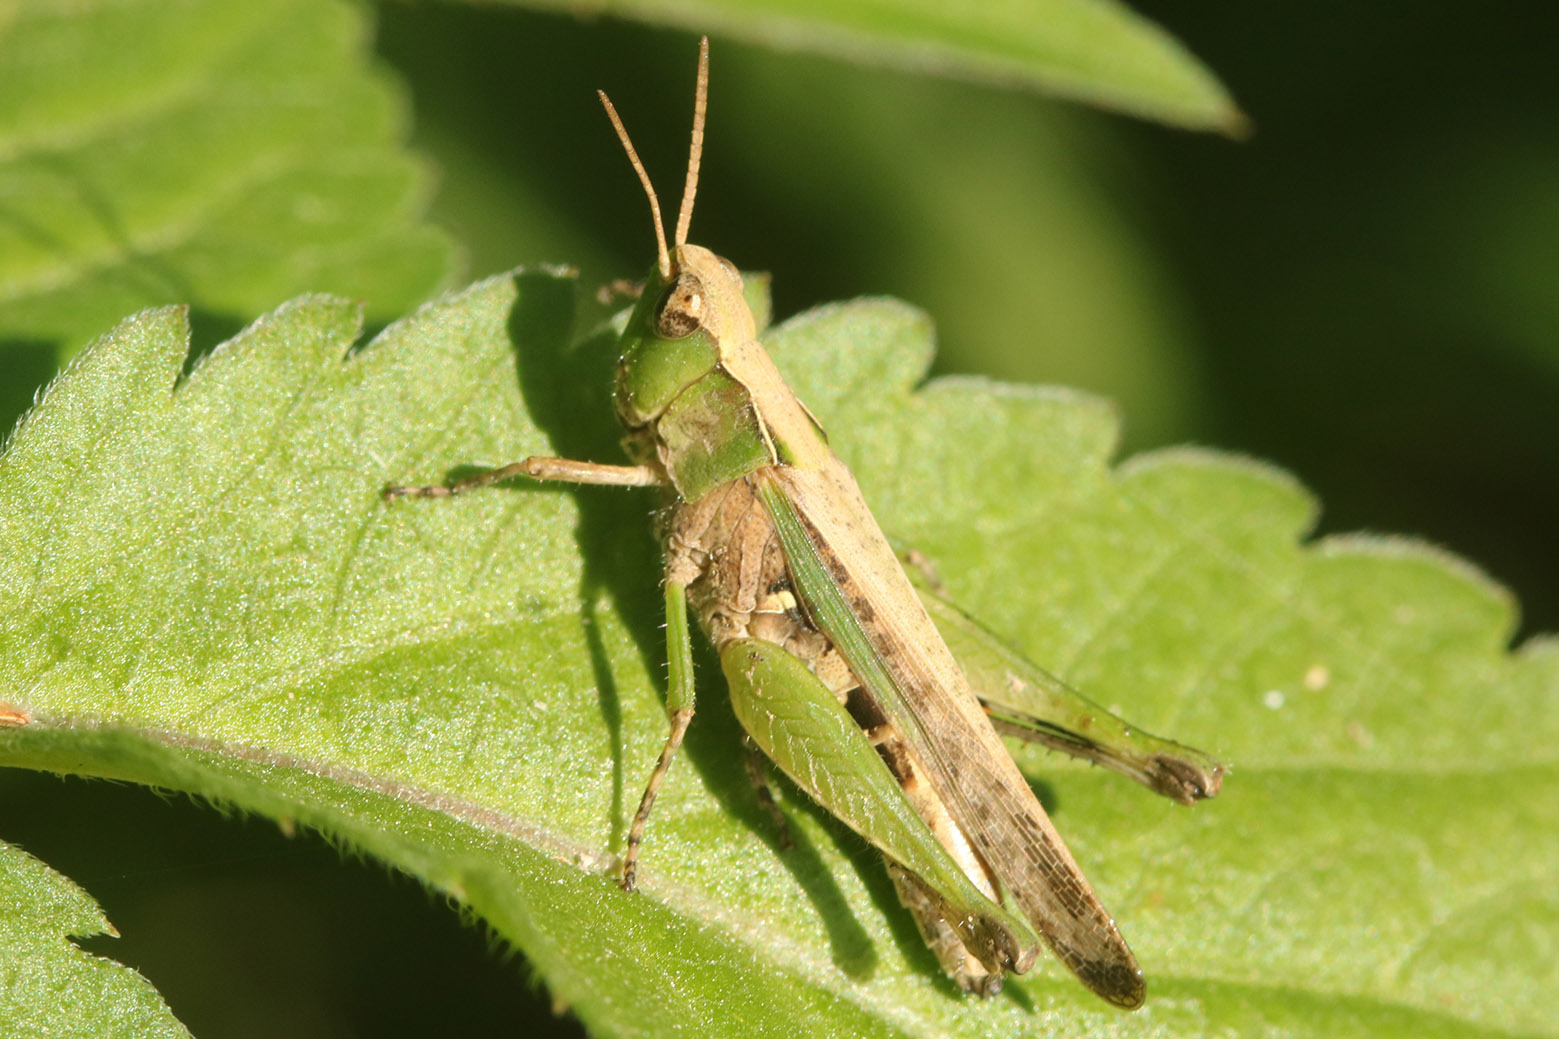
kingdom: Animalia
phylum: Arthropoda
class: Insecta
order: Orthoptera
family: Acrididae
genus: Orphulella
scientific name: Orphulella punctata
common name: Slant-faced grasshopper
